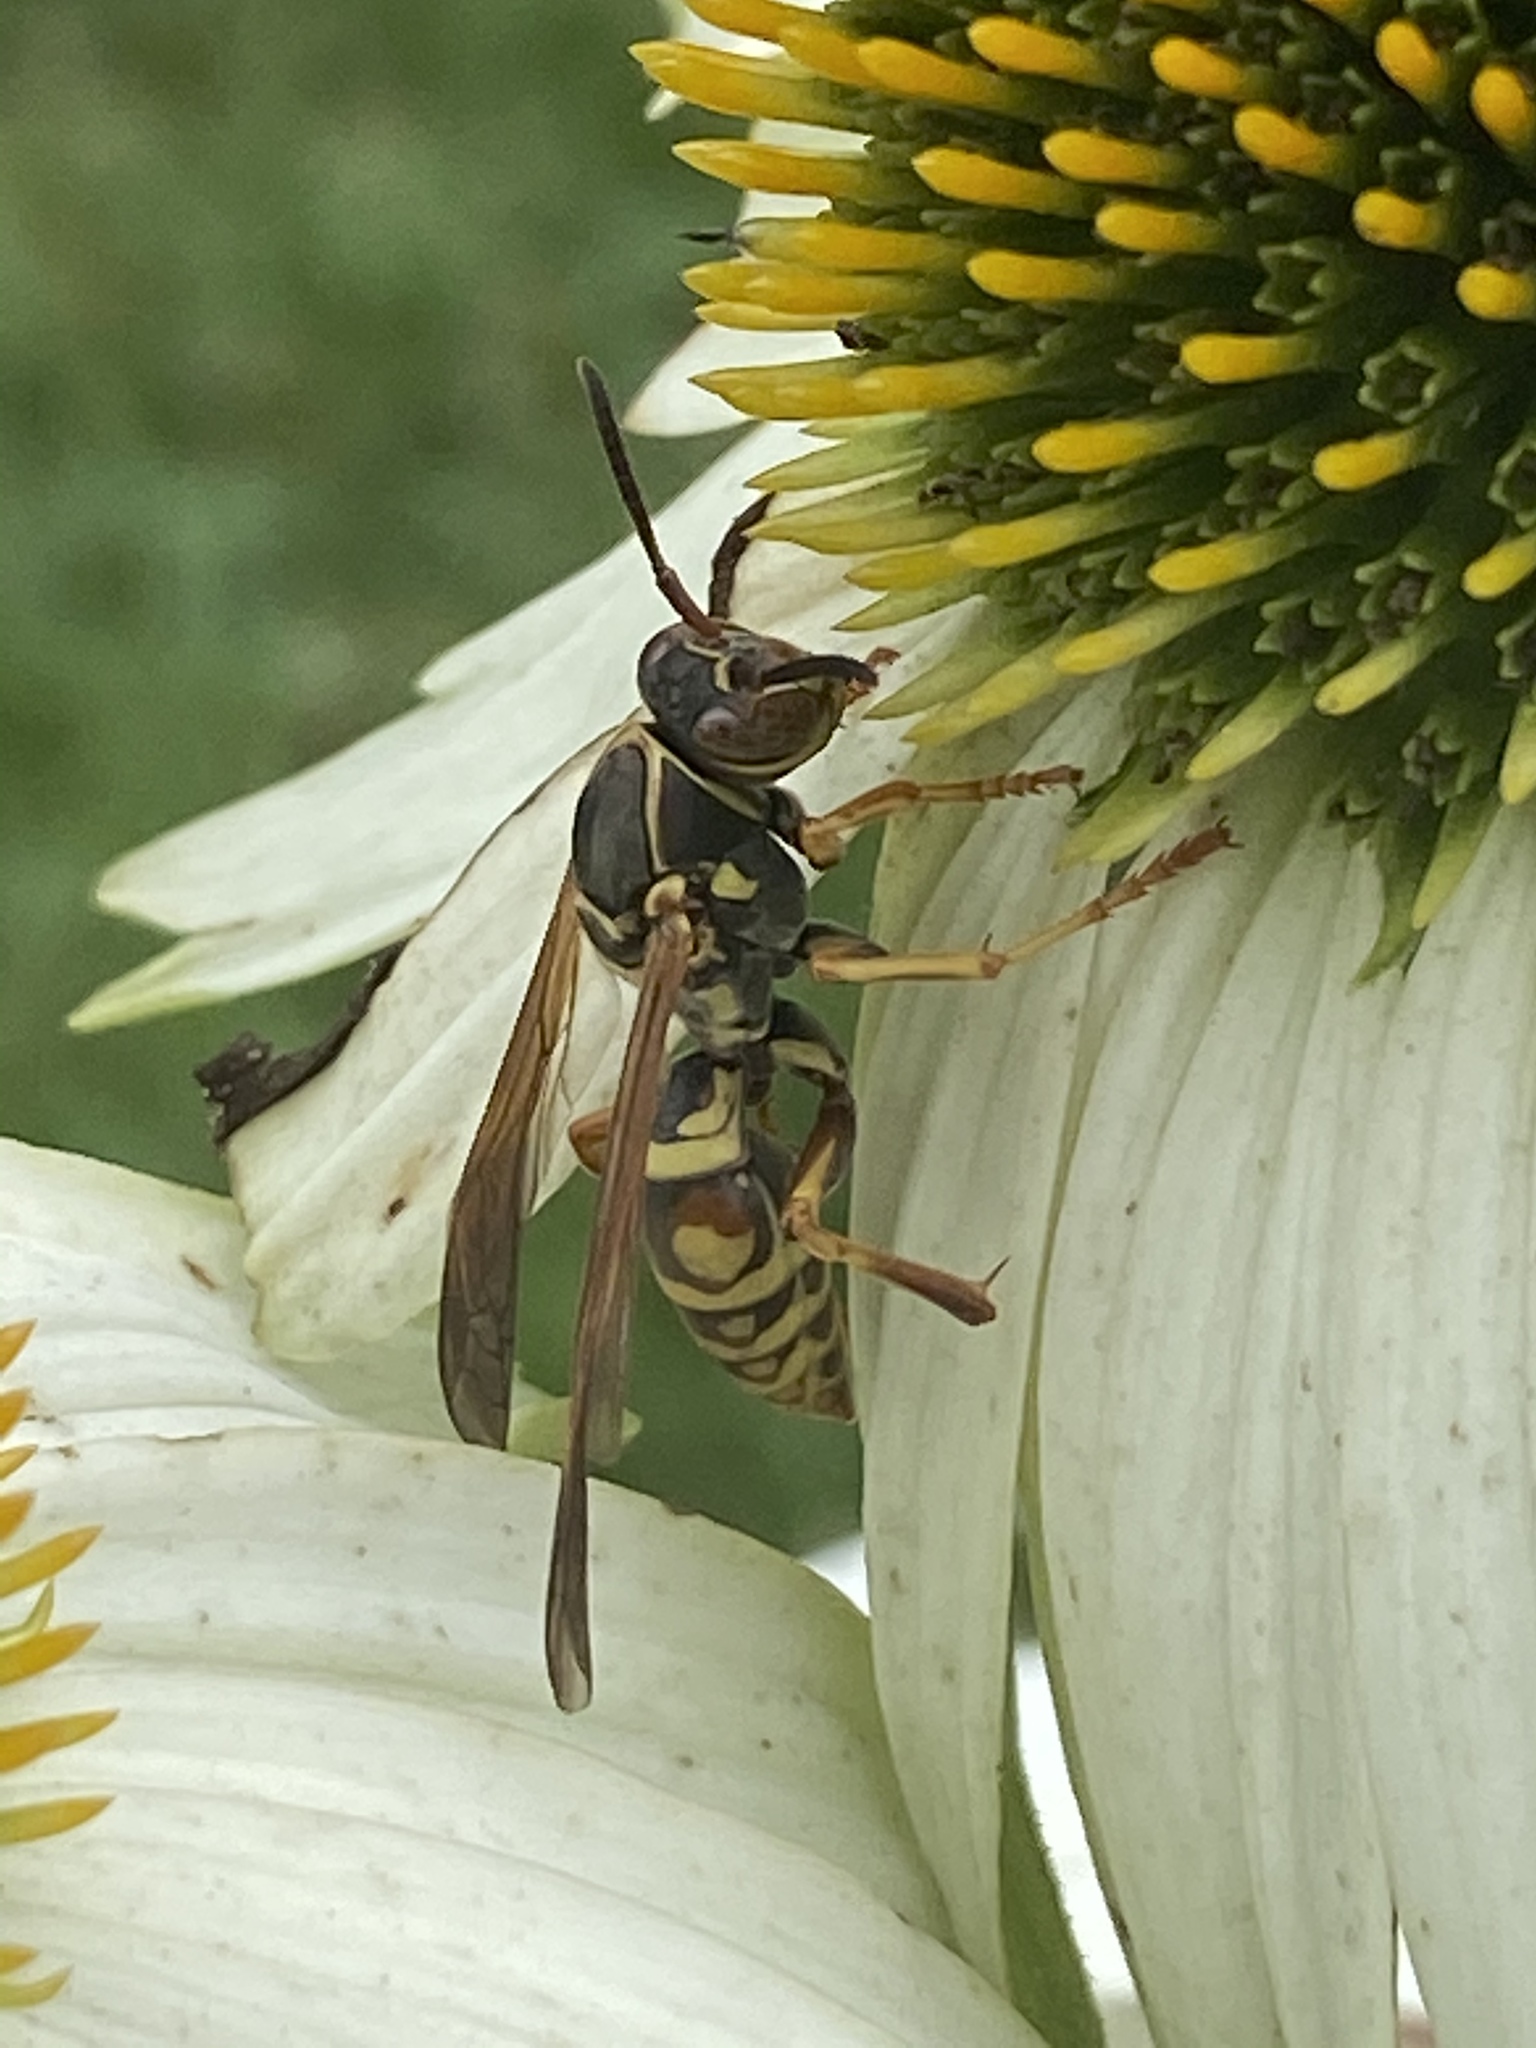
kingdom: Animalia
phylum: Arthropoda
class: Insecta
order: Hymenoptera
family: Eumenidae
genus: Polistes
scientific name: Polistes fuscatus
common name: Dark paper wasp
